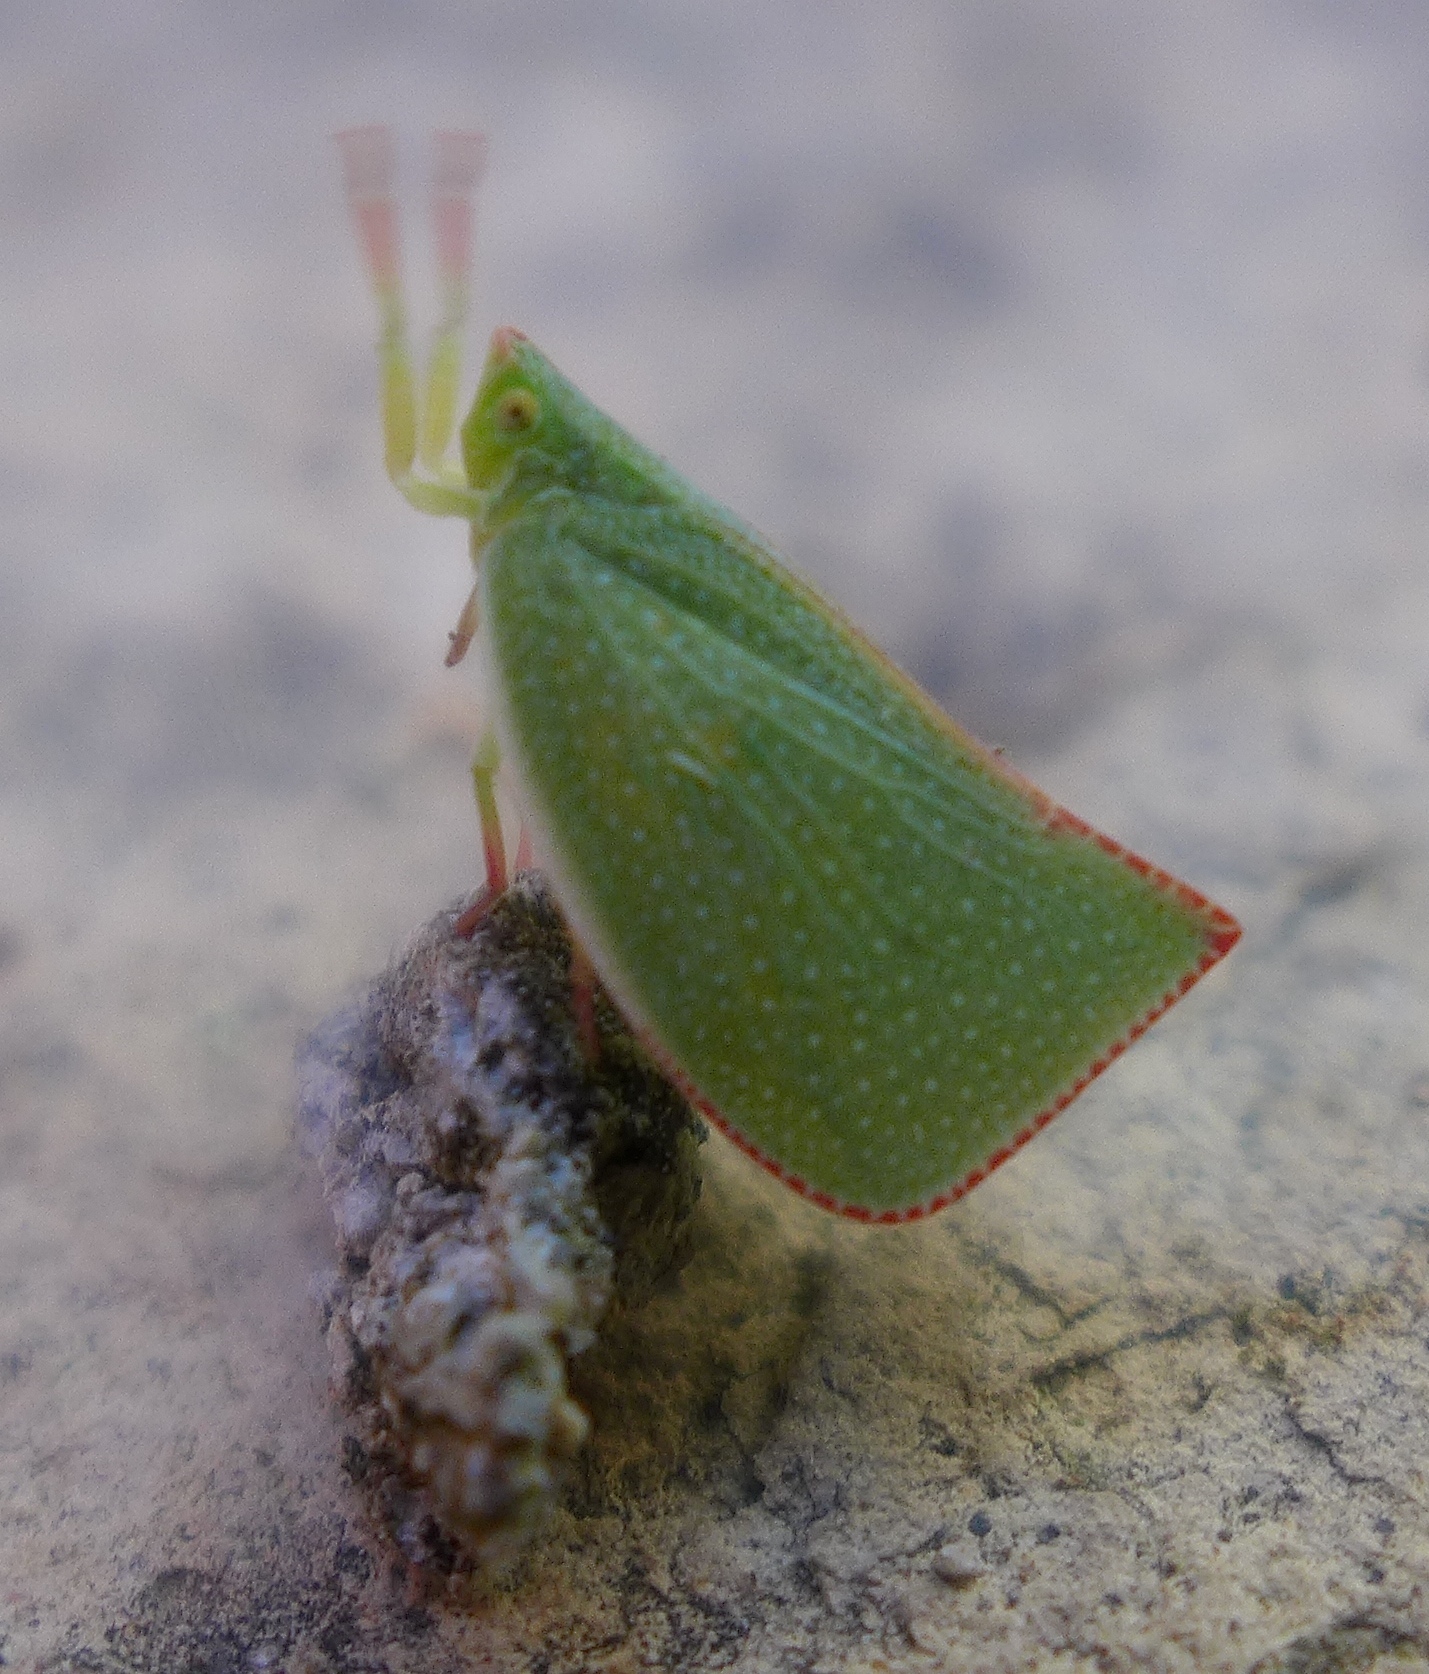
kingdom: Animalia
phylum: Arthropoda
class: Insecta
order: Hemiptera
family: Flatidae
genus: Siphanta
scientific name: Siphanta acuta
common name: Torpedo bug
